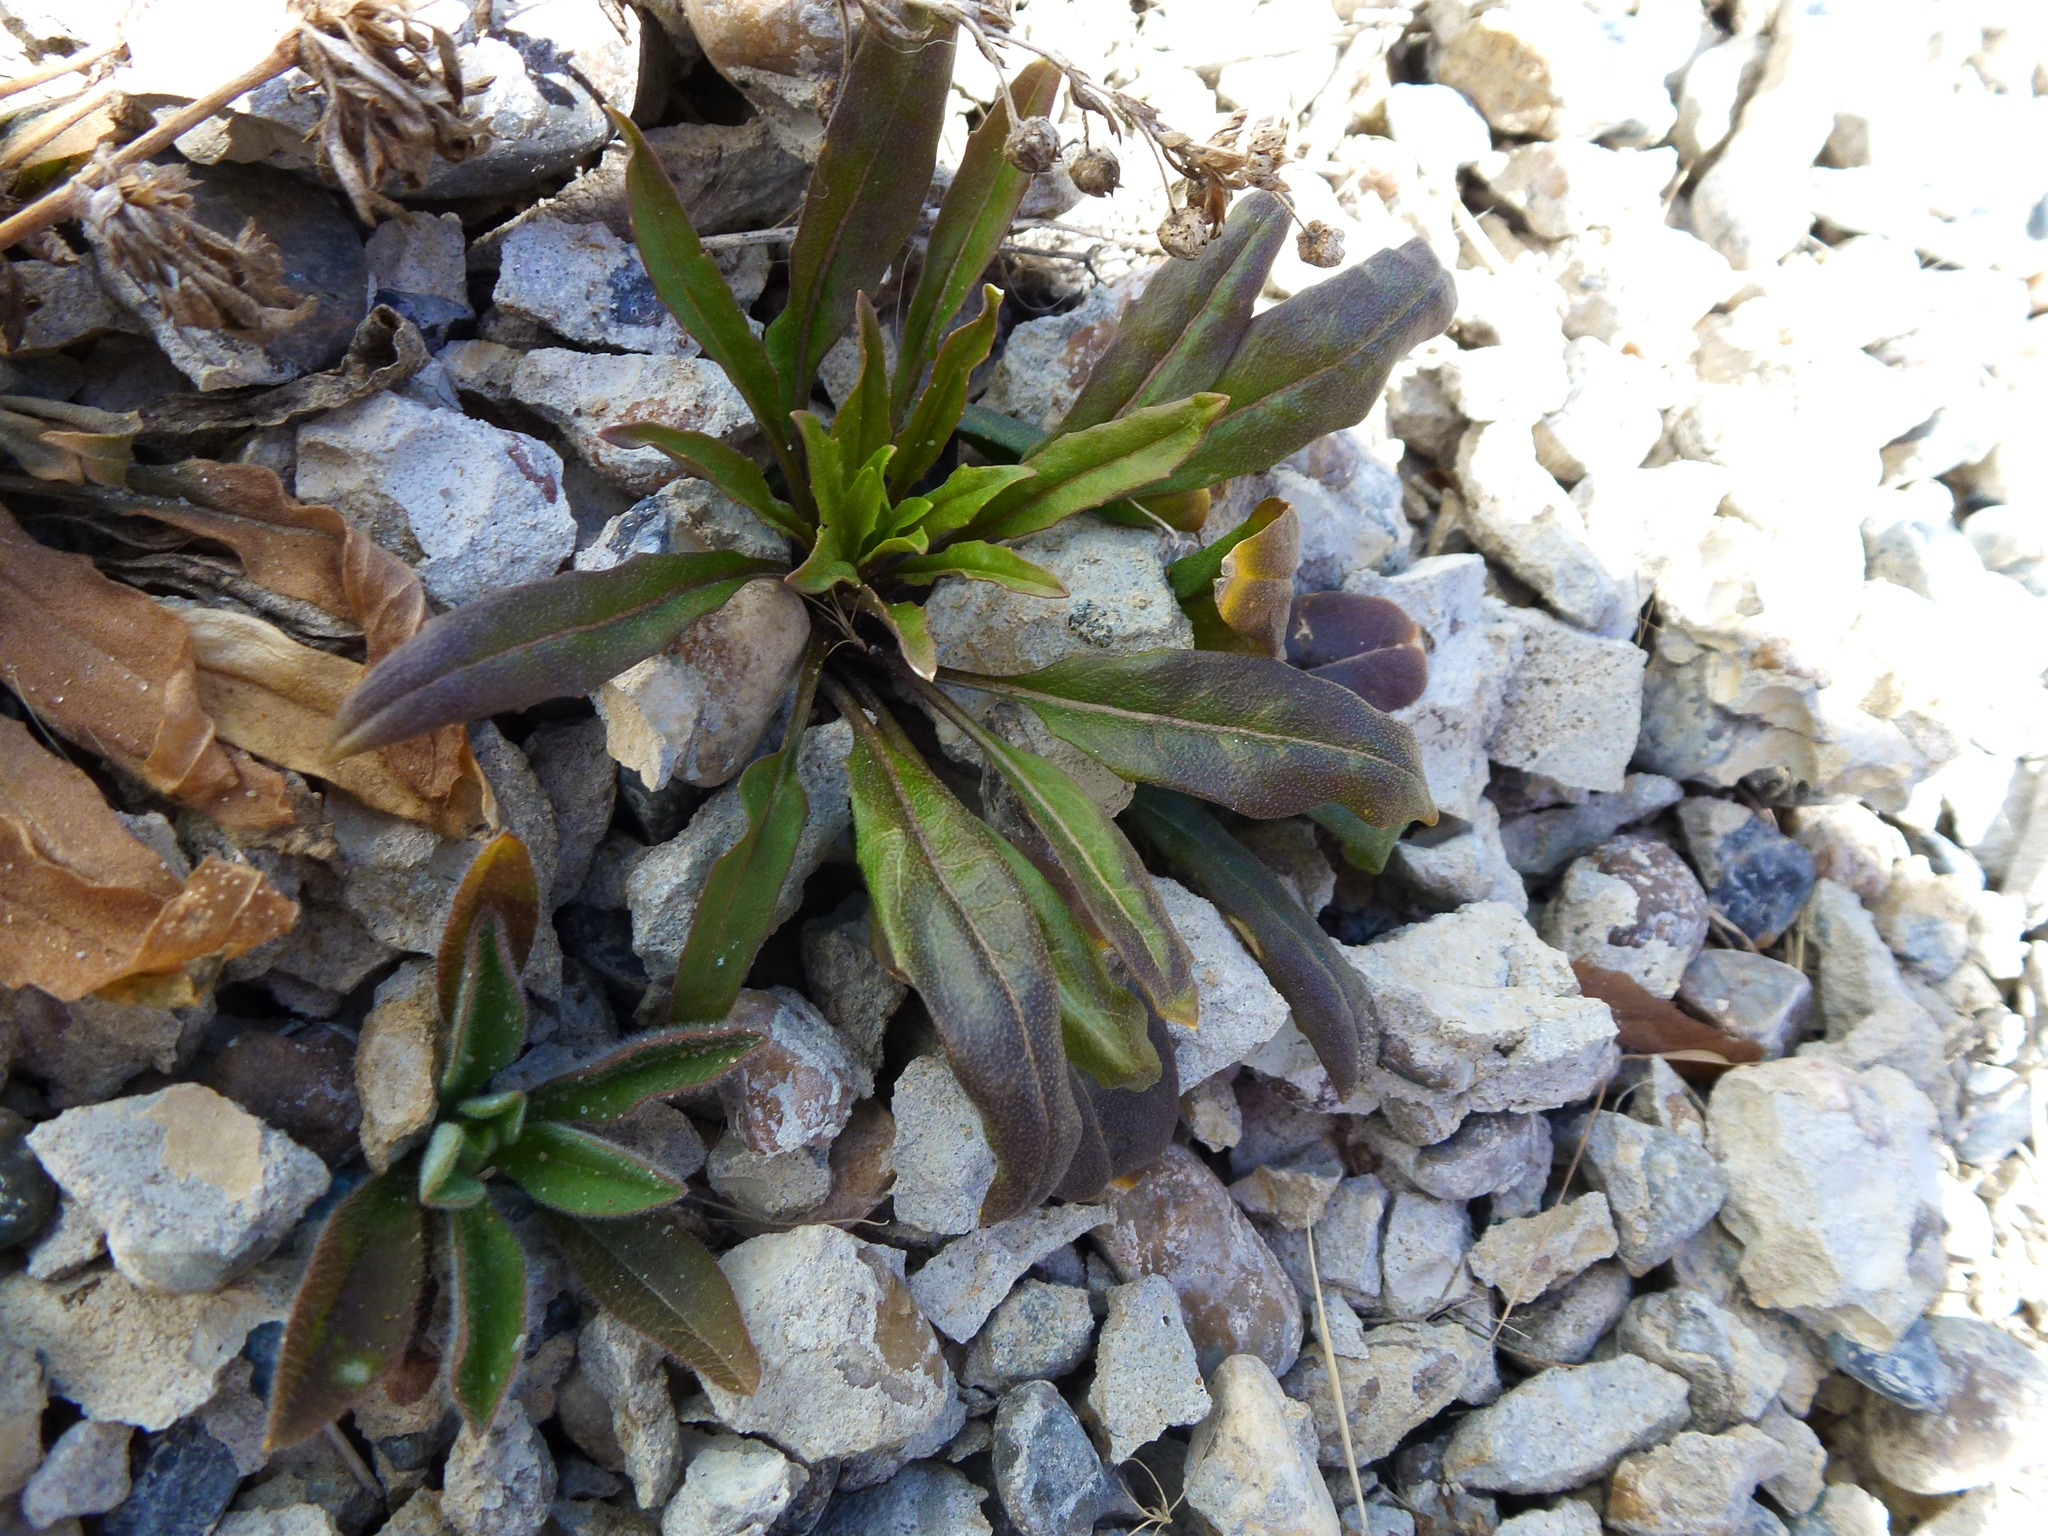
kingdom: Plantae
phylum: Tracheophyta
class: Magnoliopsida
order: Brassicales
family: Brassicaceae
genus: Erysimum
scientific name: Erysimum cheiranthoides
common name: Treacle mustard
